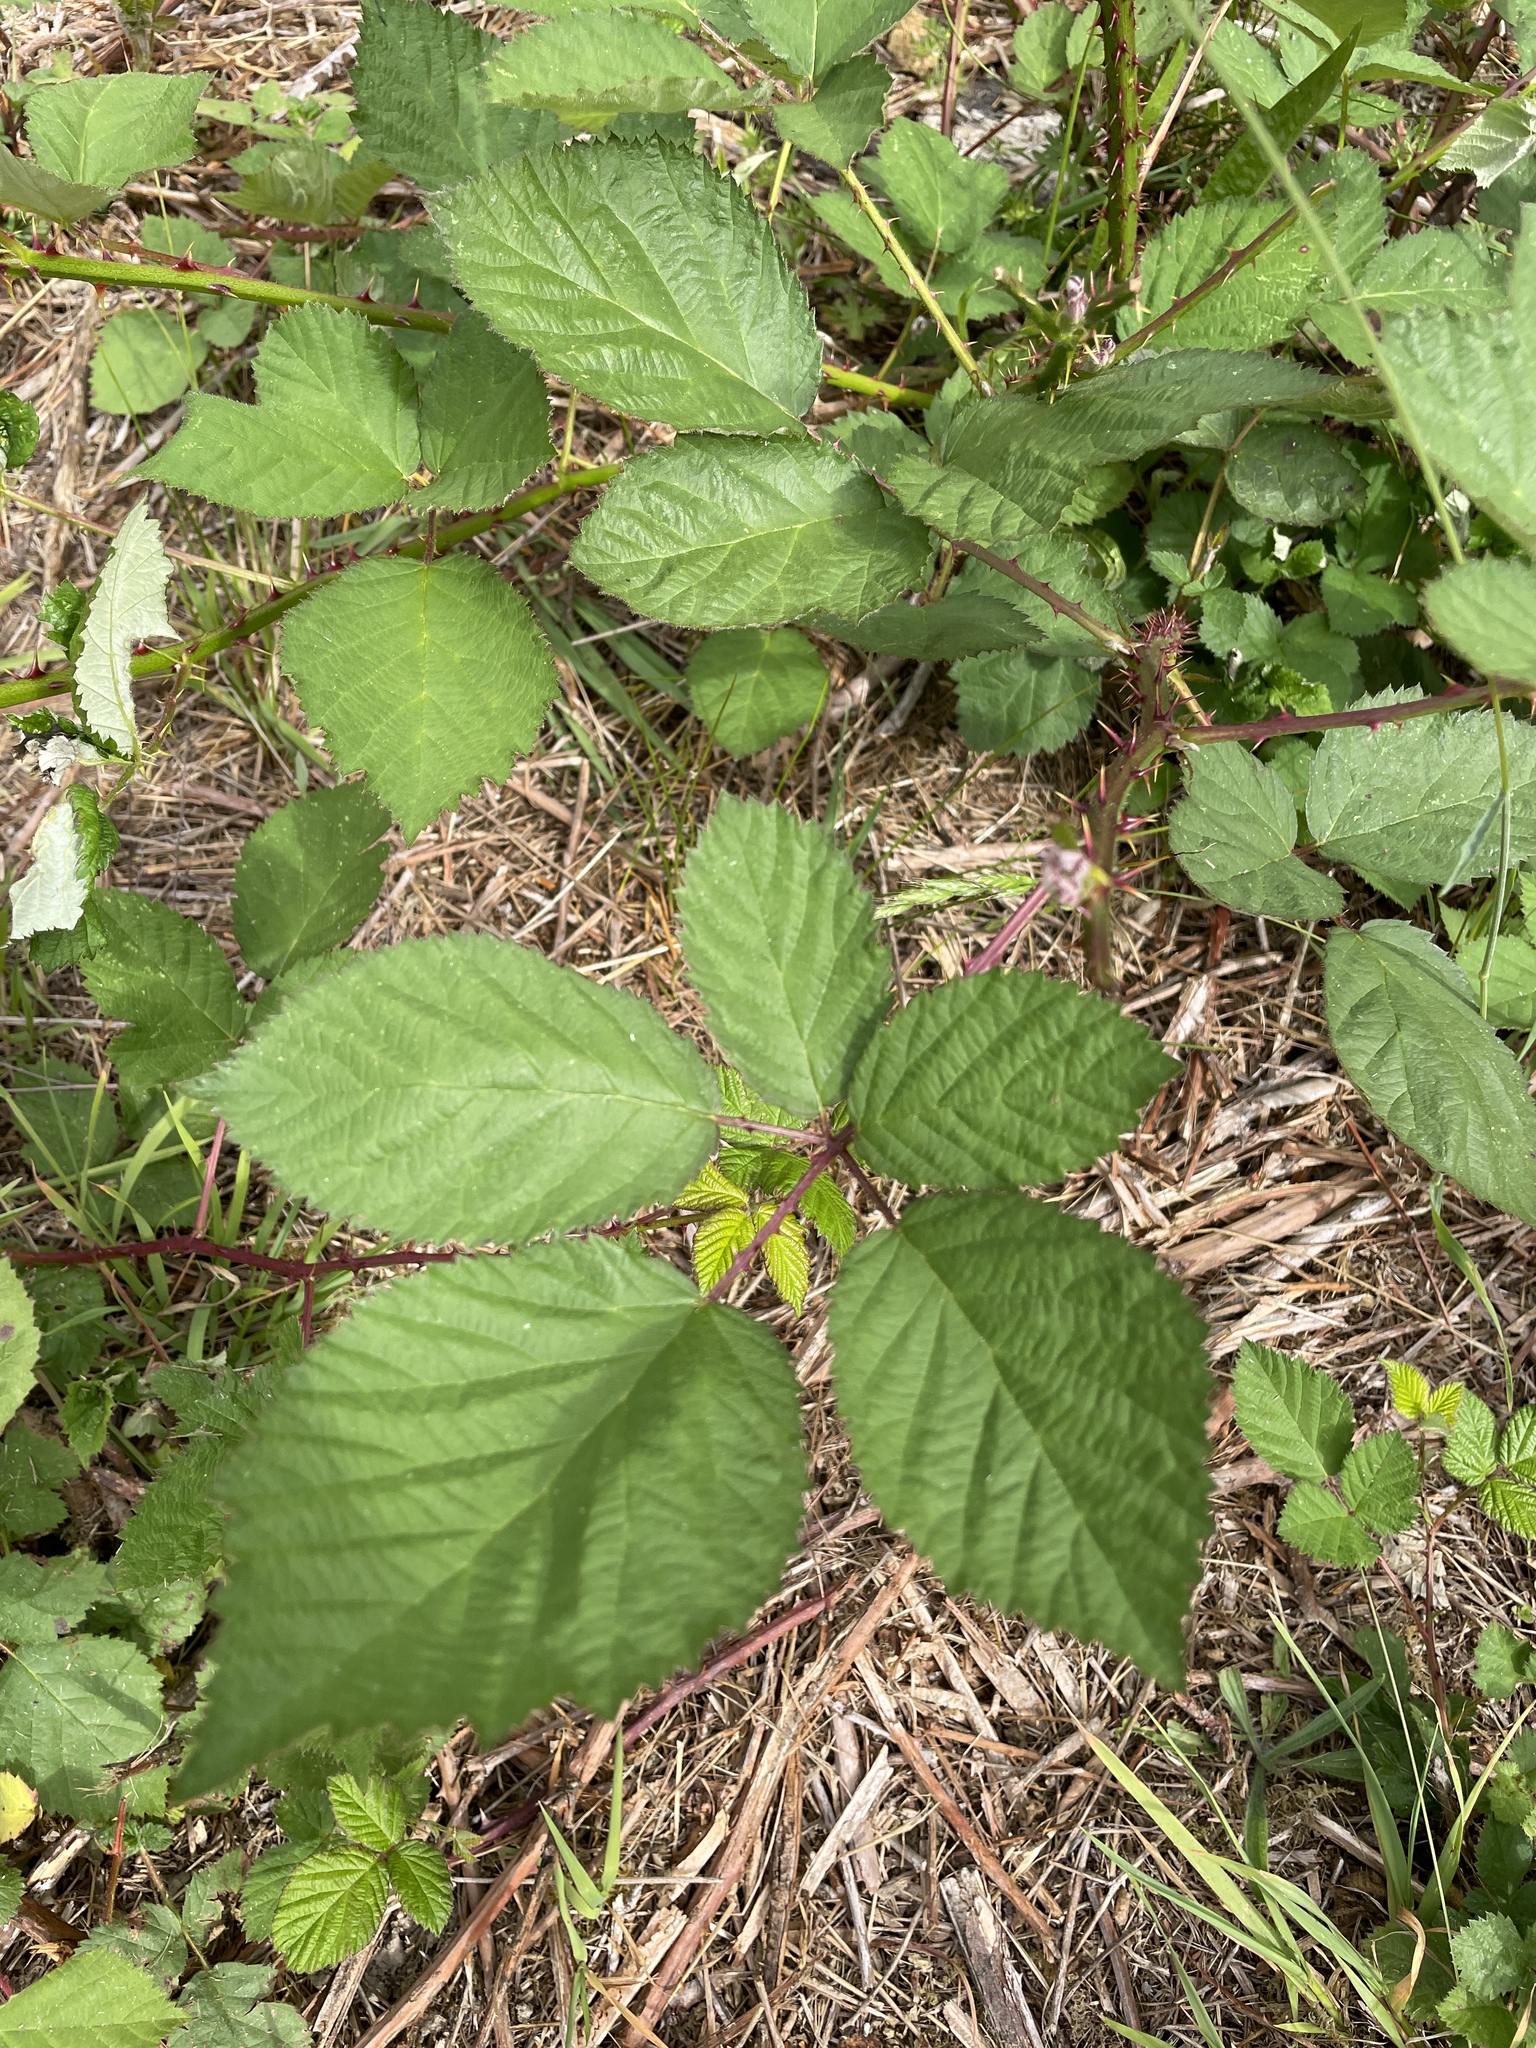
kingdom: Plantae
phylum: Tracheophyta
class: Magnoliopsida
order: Rosales
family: Rosaceae
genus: Rubus
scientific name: Rubus armeniacus
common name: Himalayan blackberry
